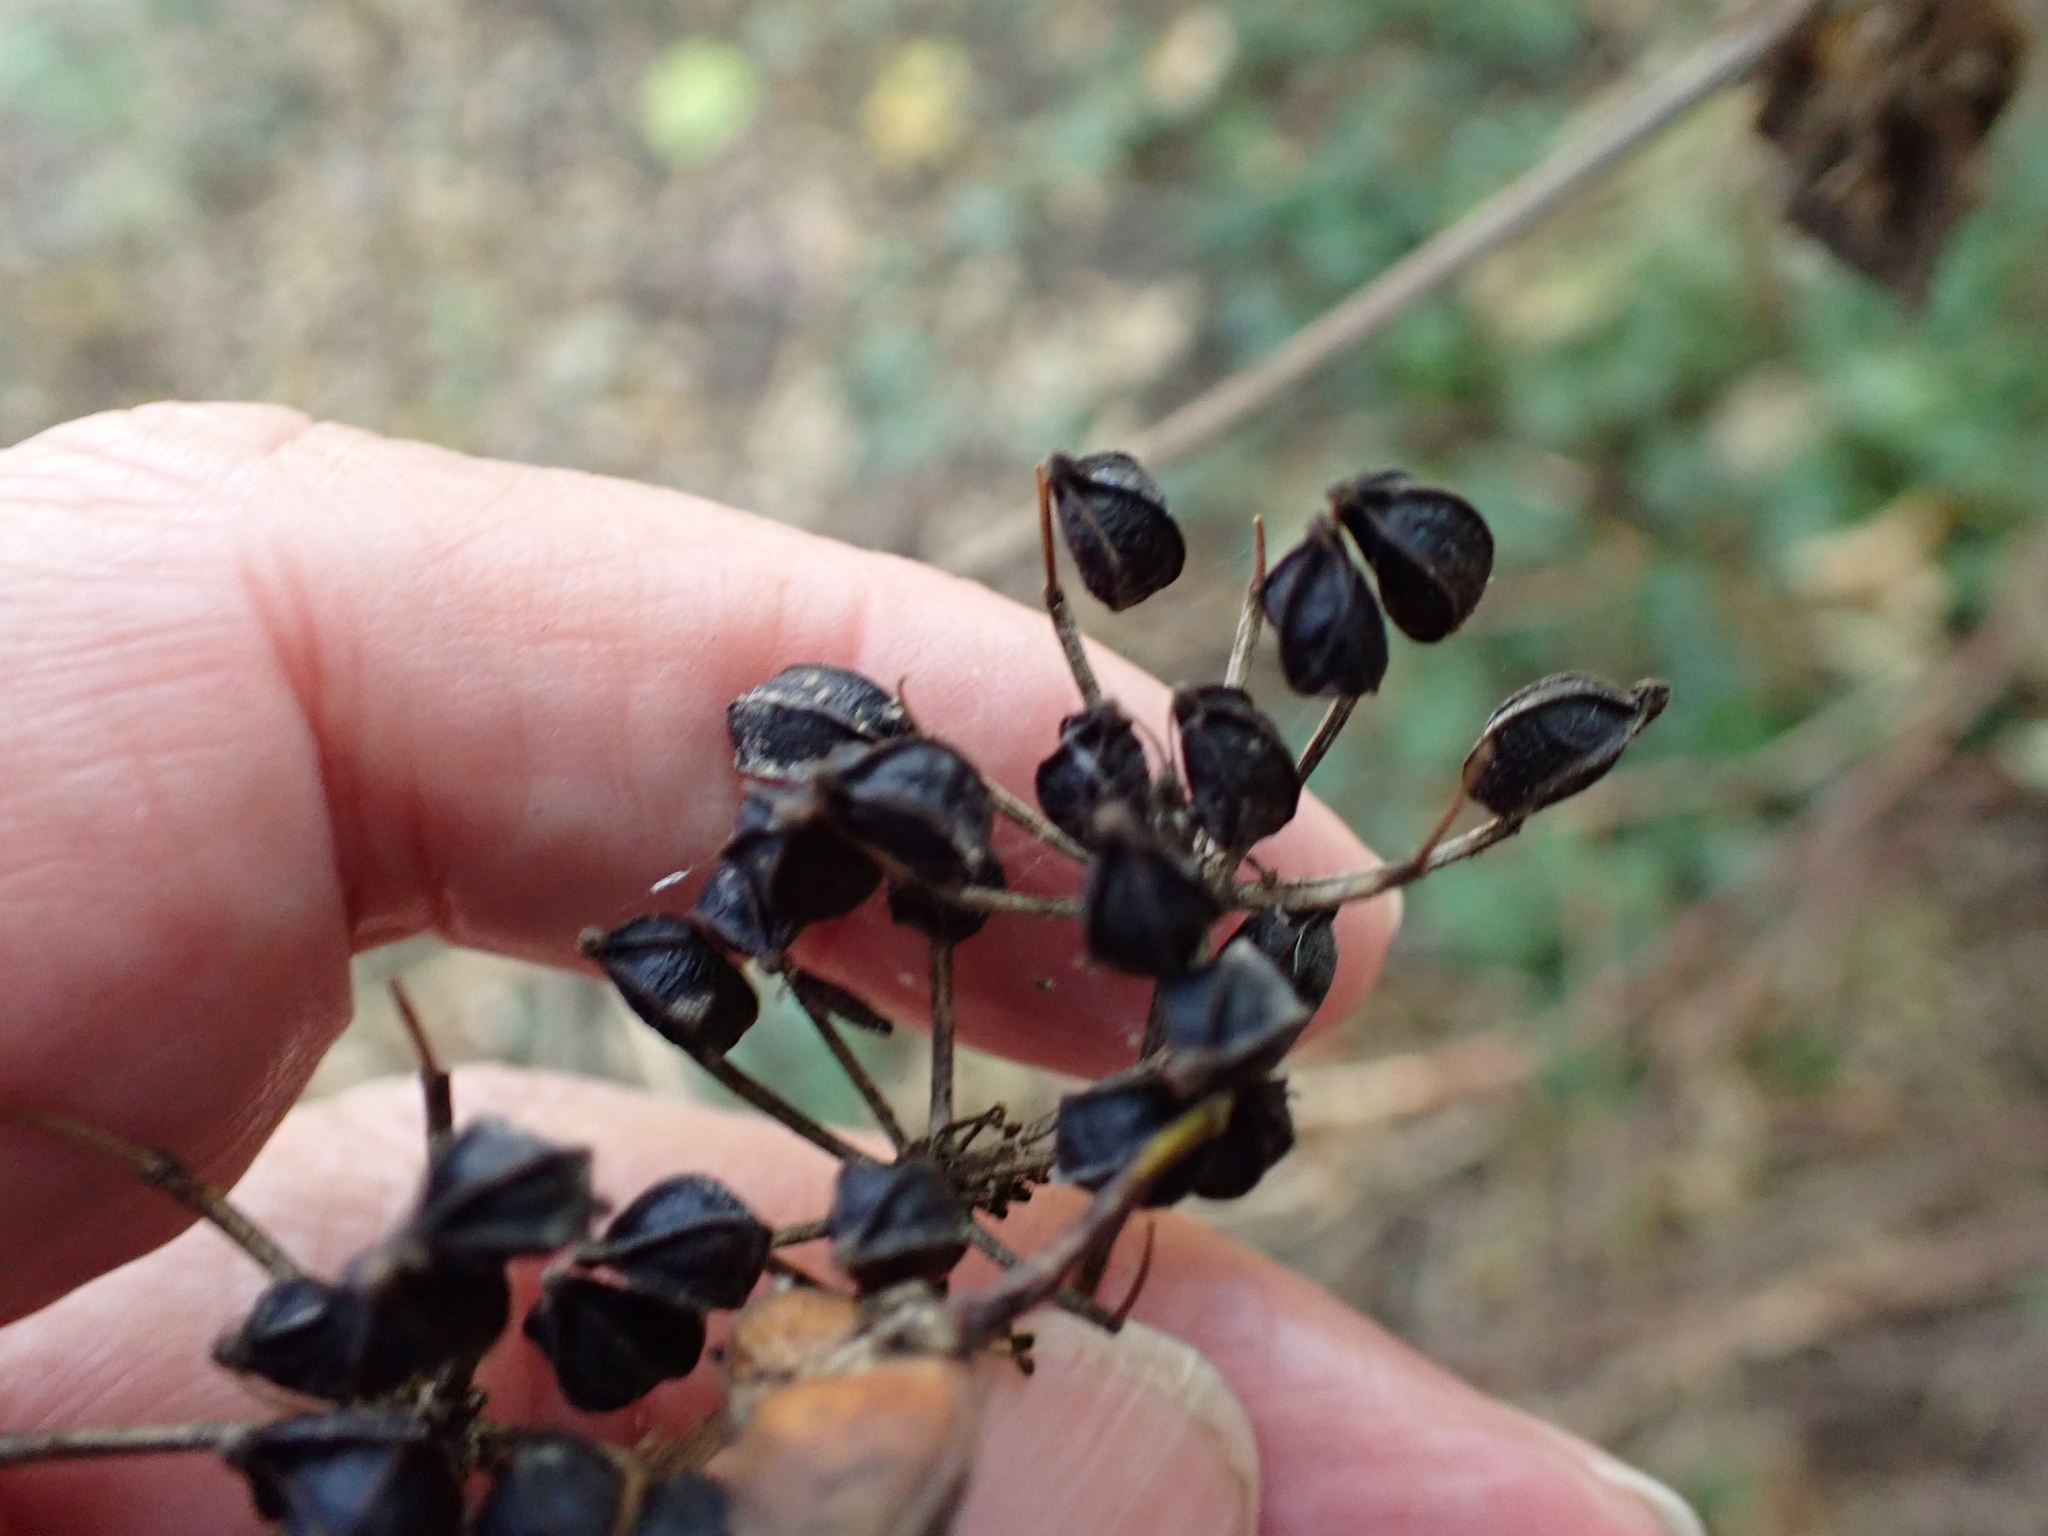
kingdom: Plantae
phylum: Tracheophyta
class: Magnoliopsida
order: Apiales
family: Apiaceae
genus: Smyrnium
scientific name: Smyrnium olusatrum
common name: Alexanders
